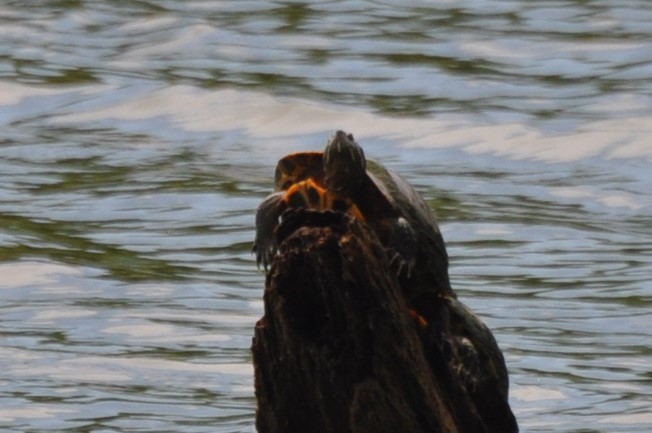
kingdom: Animalia
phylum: Chordata
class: Testudines
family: Emydidae
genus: Trachemys
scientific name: Trachemys scripta
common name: Slider
